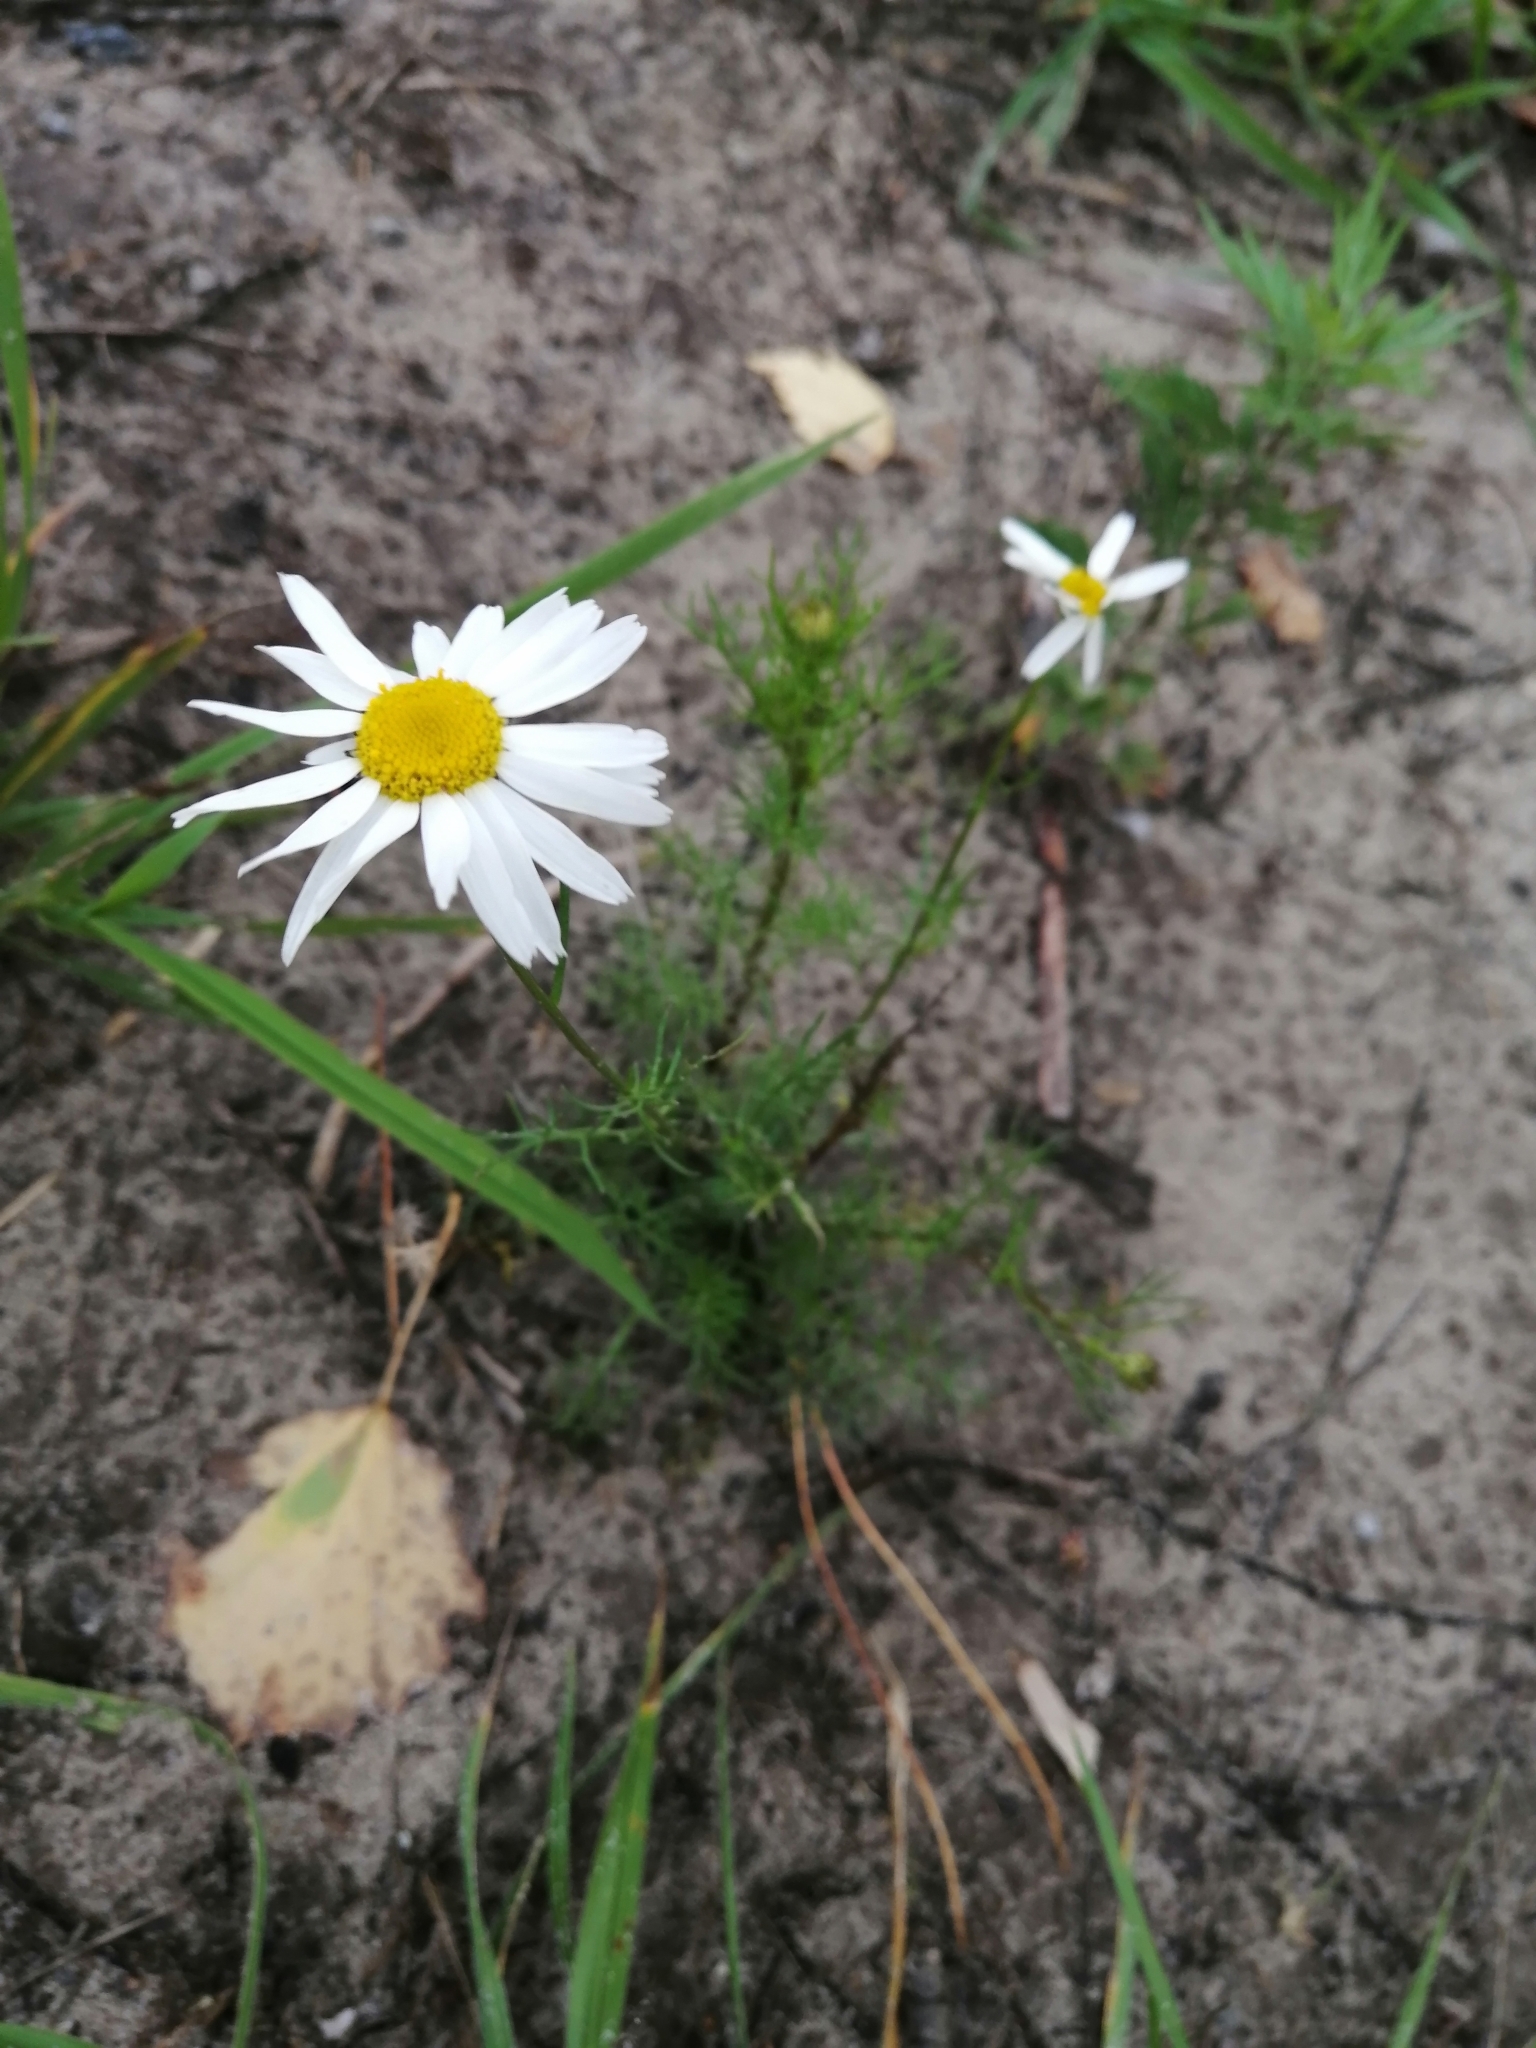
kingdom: Plantae
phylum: Tracheophyta
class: Magnoliopsida
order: Asterales
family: Asteraceae
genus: Tripleurospermum
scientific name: Tripleurospermum inodorum
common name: Scentless mayweed
